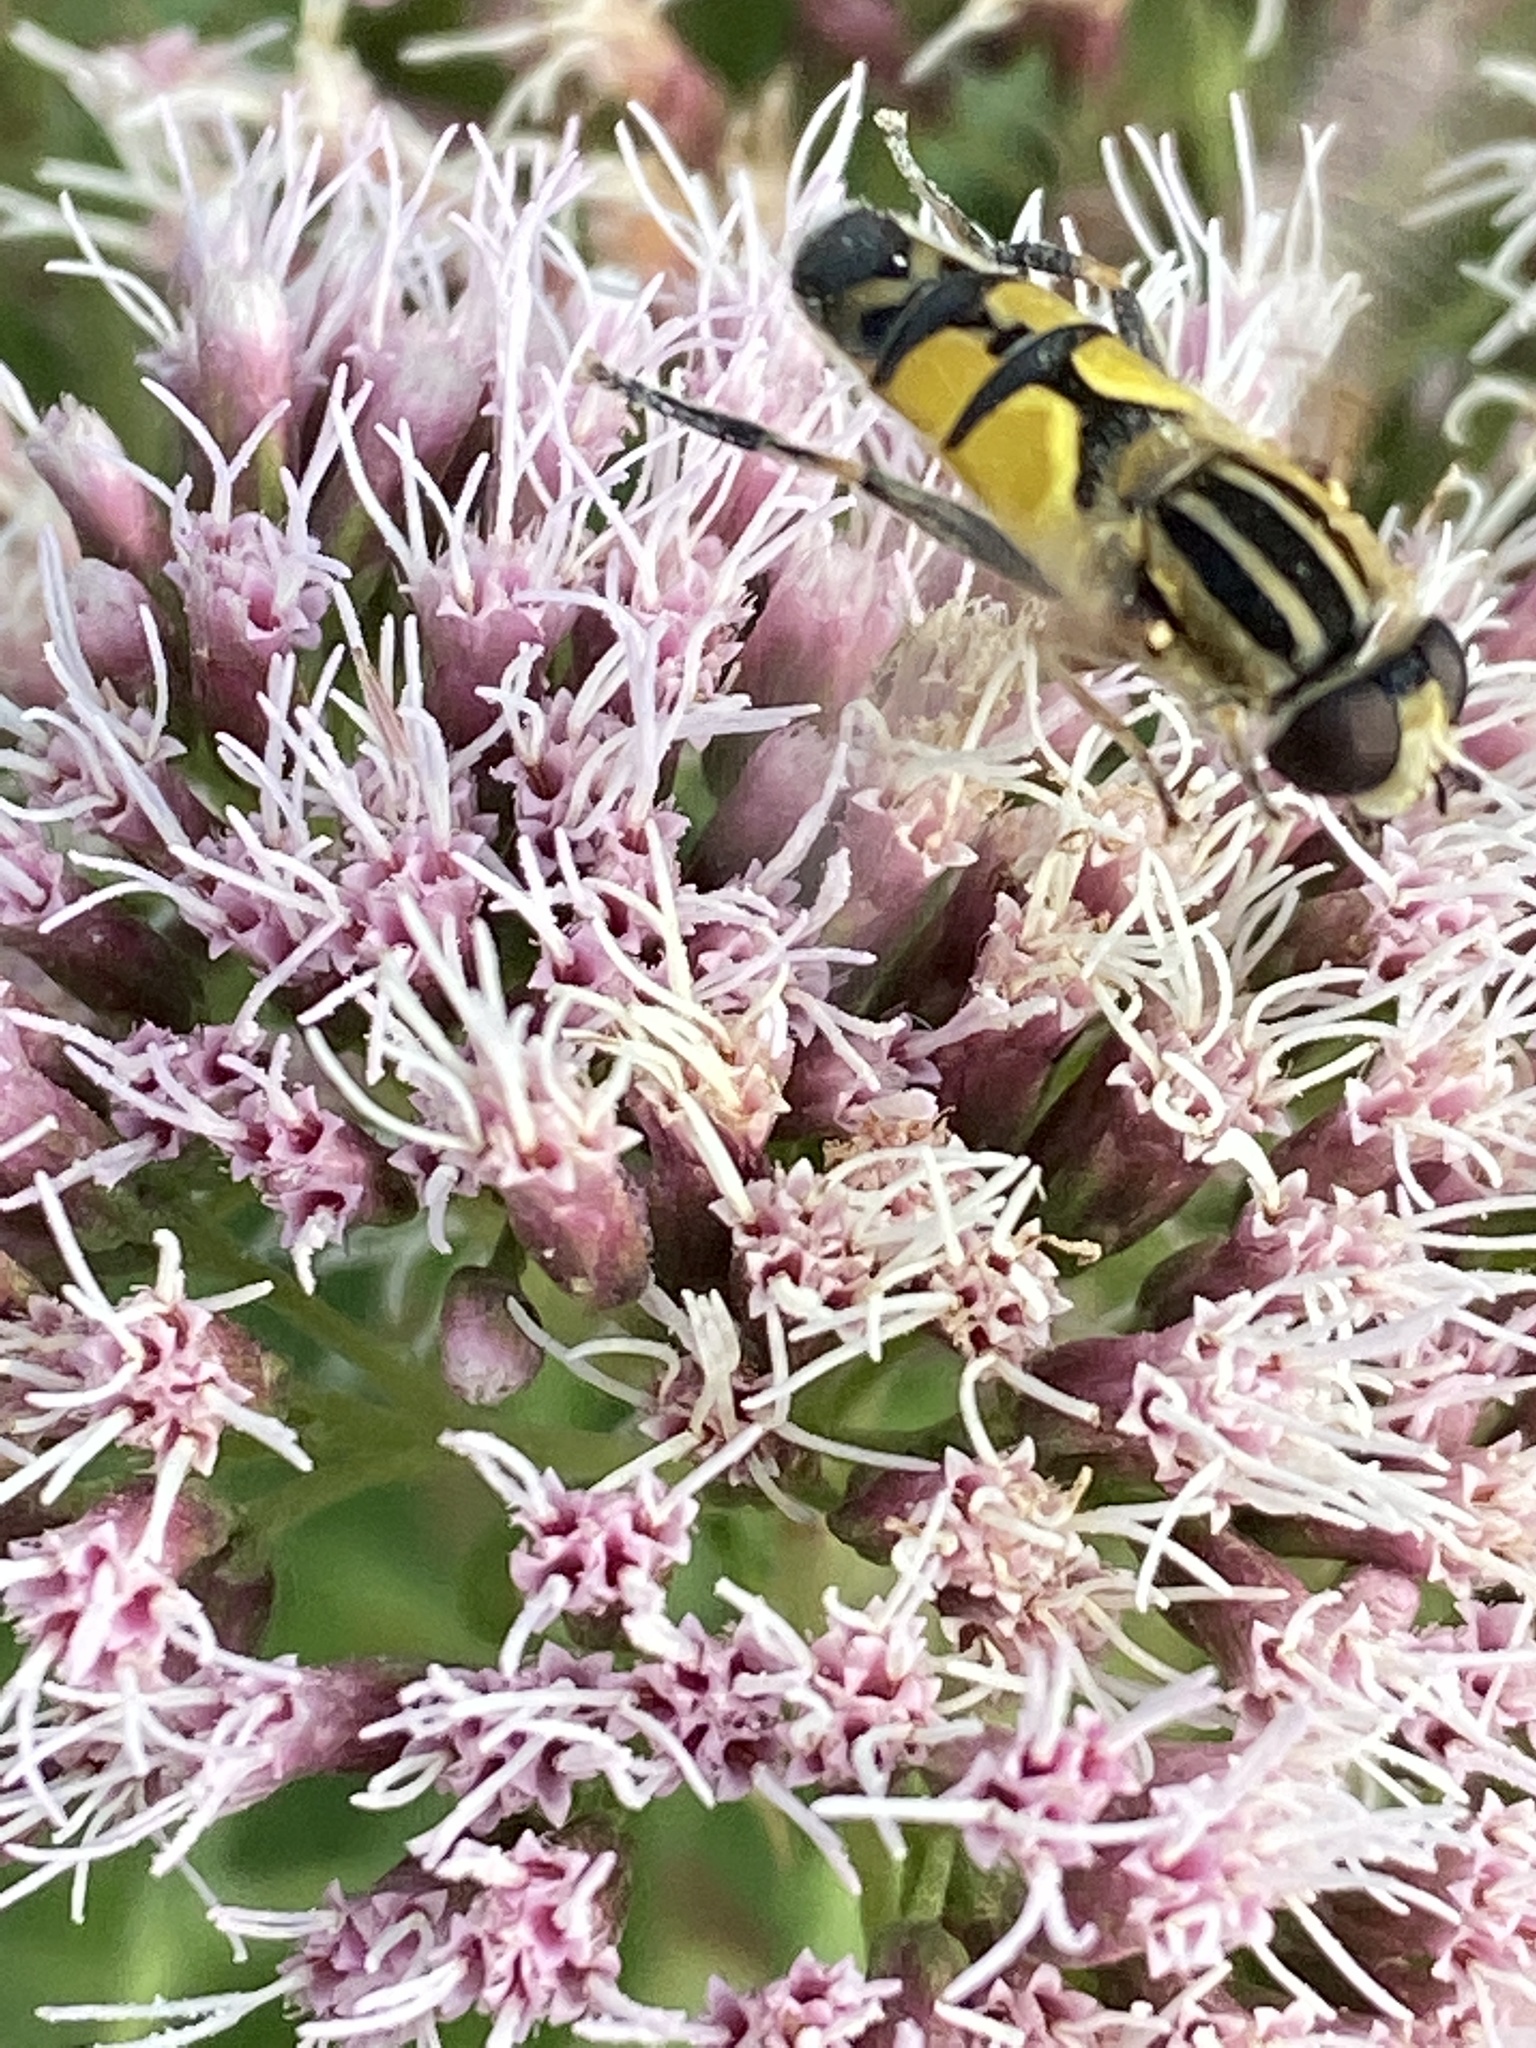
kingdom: Animalia
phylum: Arthropoda
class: Insecta
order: Diptera
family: Syrphidae
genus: Helophilus
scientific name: Helophilus trivittatus
